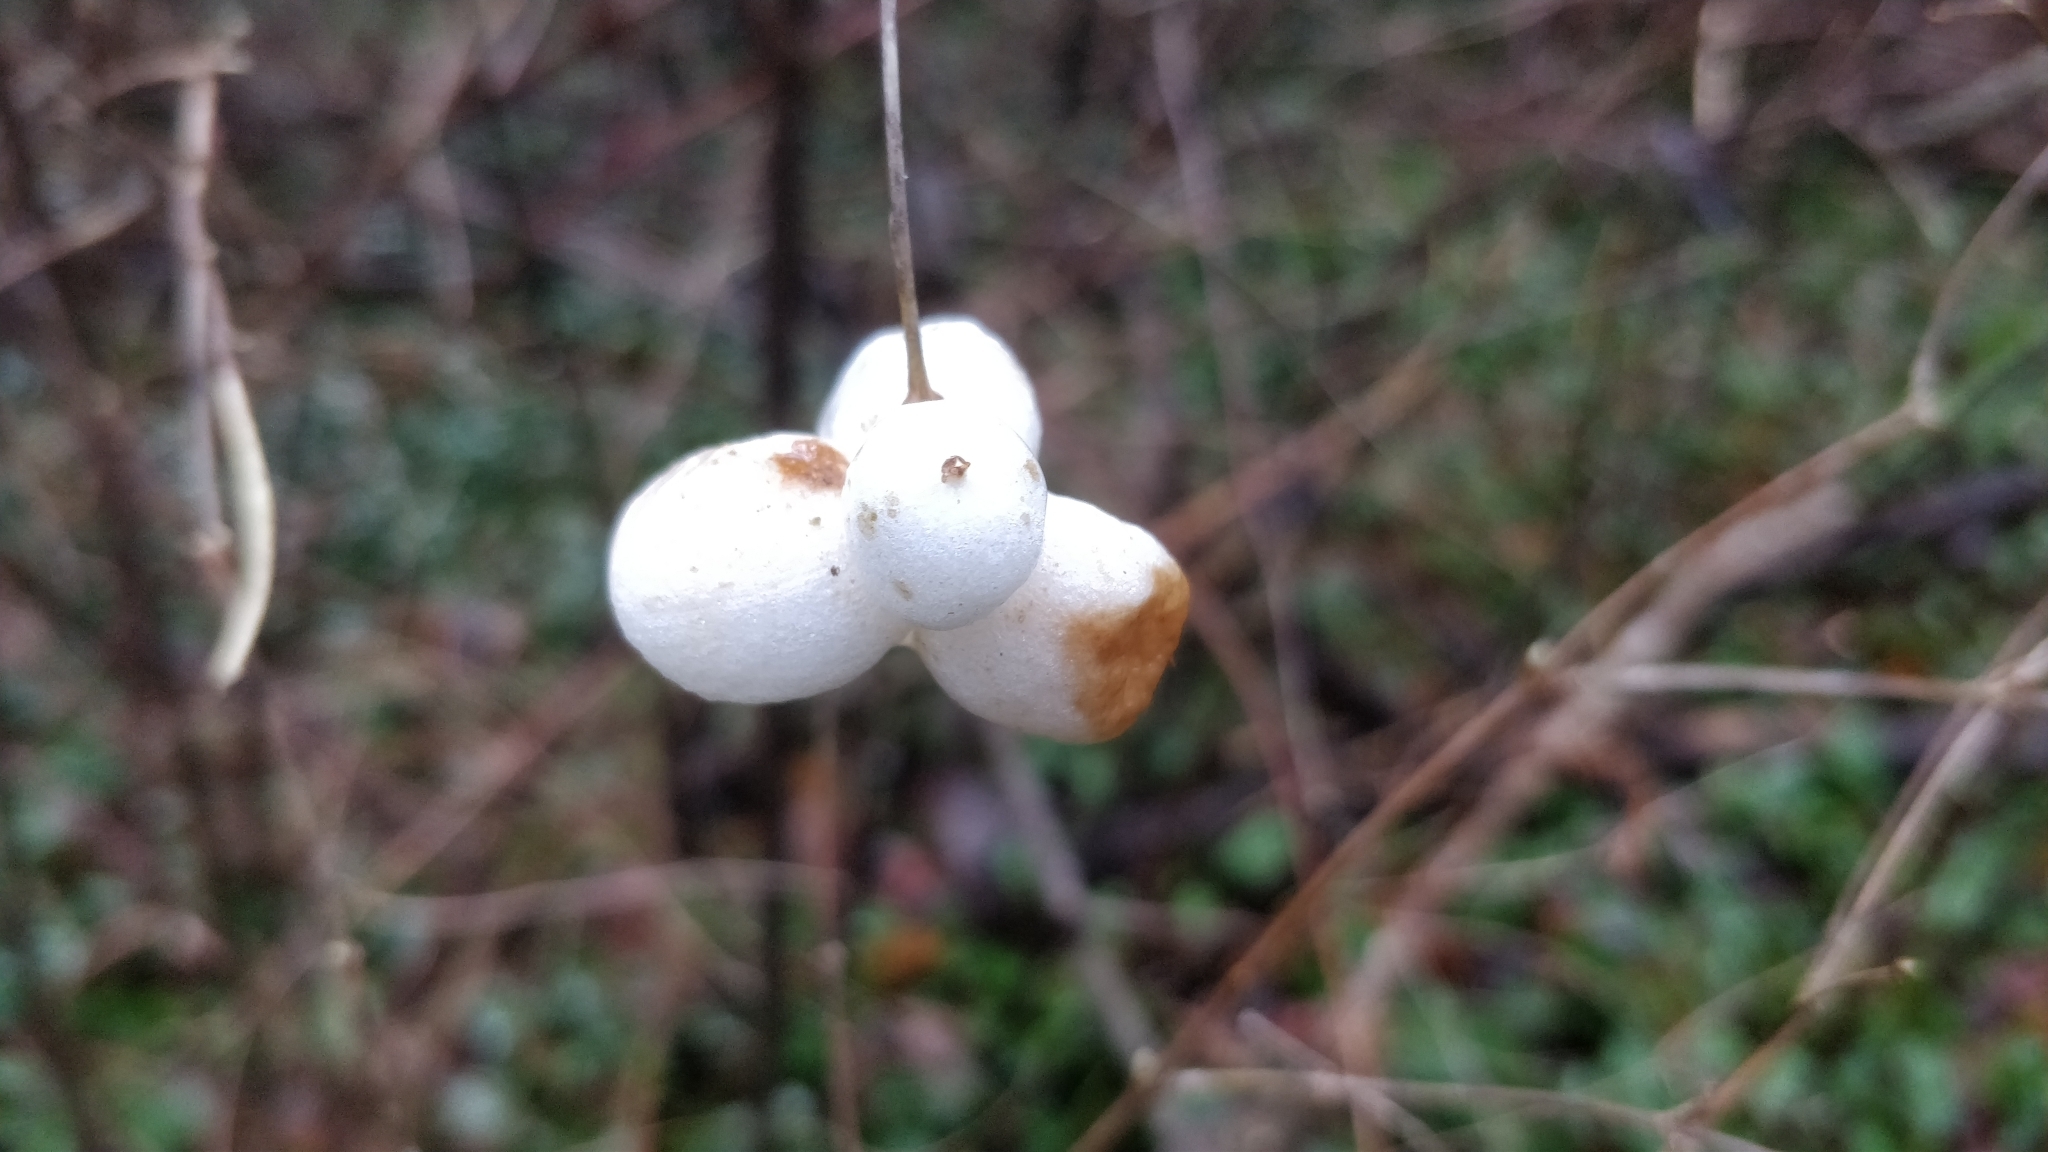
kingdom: Plantae
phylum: Tracheophyta
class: Magnoliopsida
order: Dipsacales
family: Caprifoliaceae
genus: Symphoricarpos
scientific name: Symphoricarpos albus
